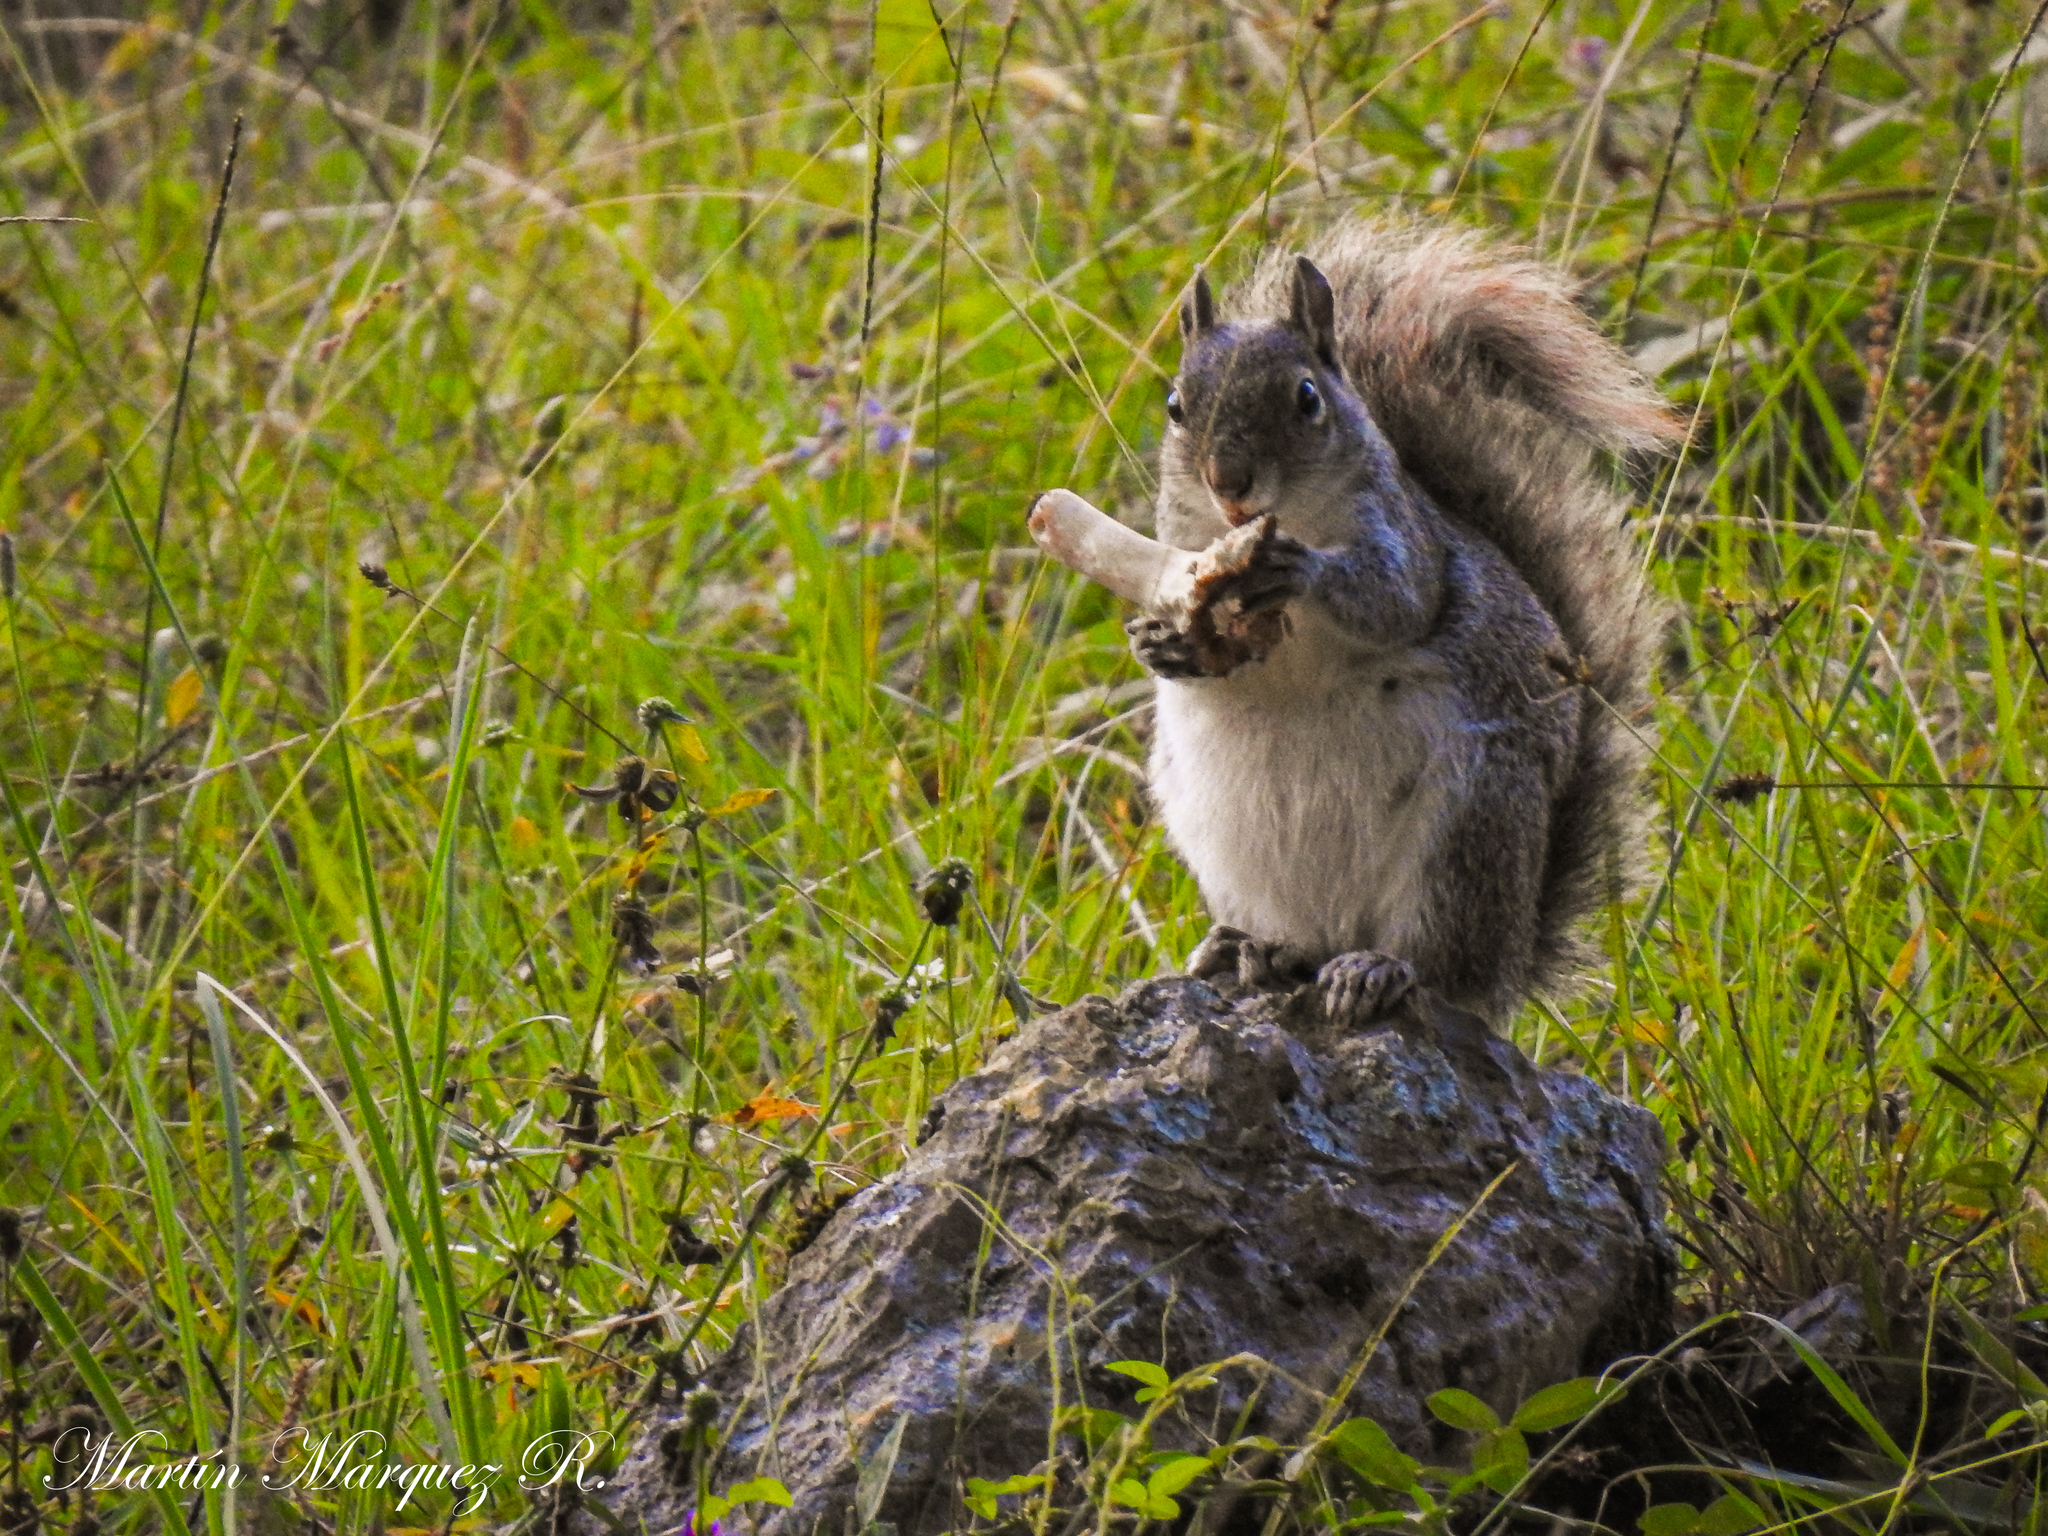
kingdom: Animalia
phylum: Chordata
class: Mammalia
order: Rodentia
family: Sciuridae
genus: Sciurus
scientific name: Sciurus alleni
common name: Allen's squirrel
